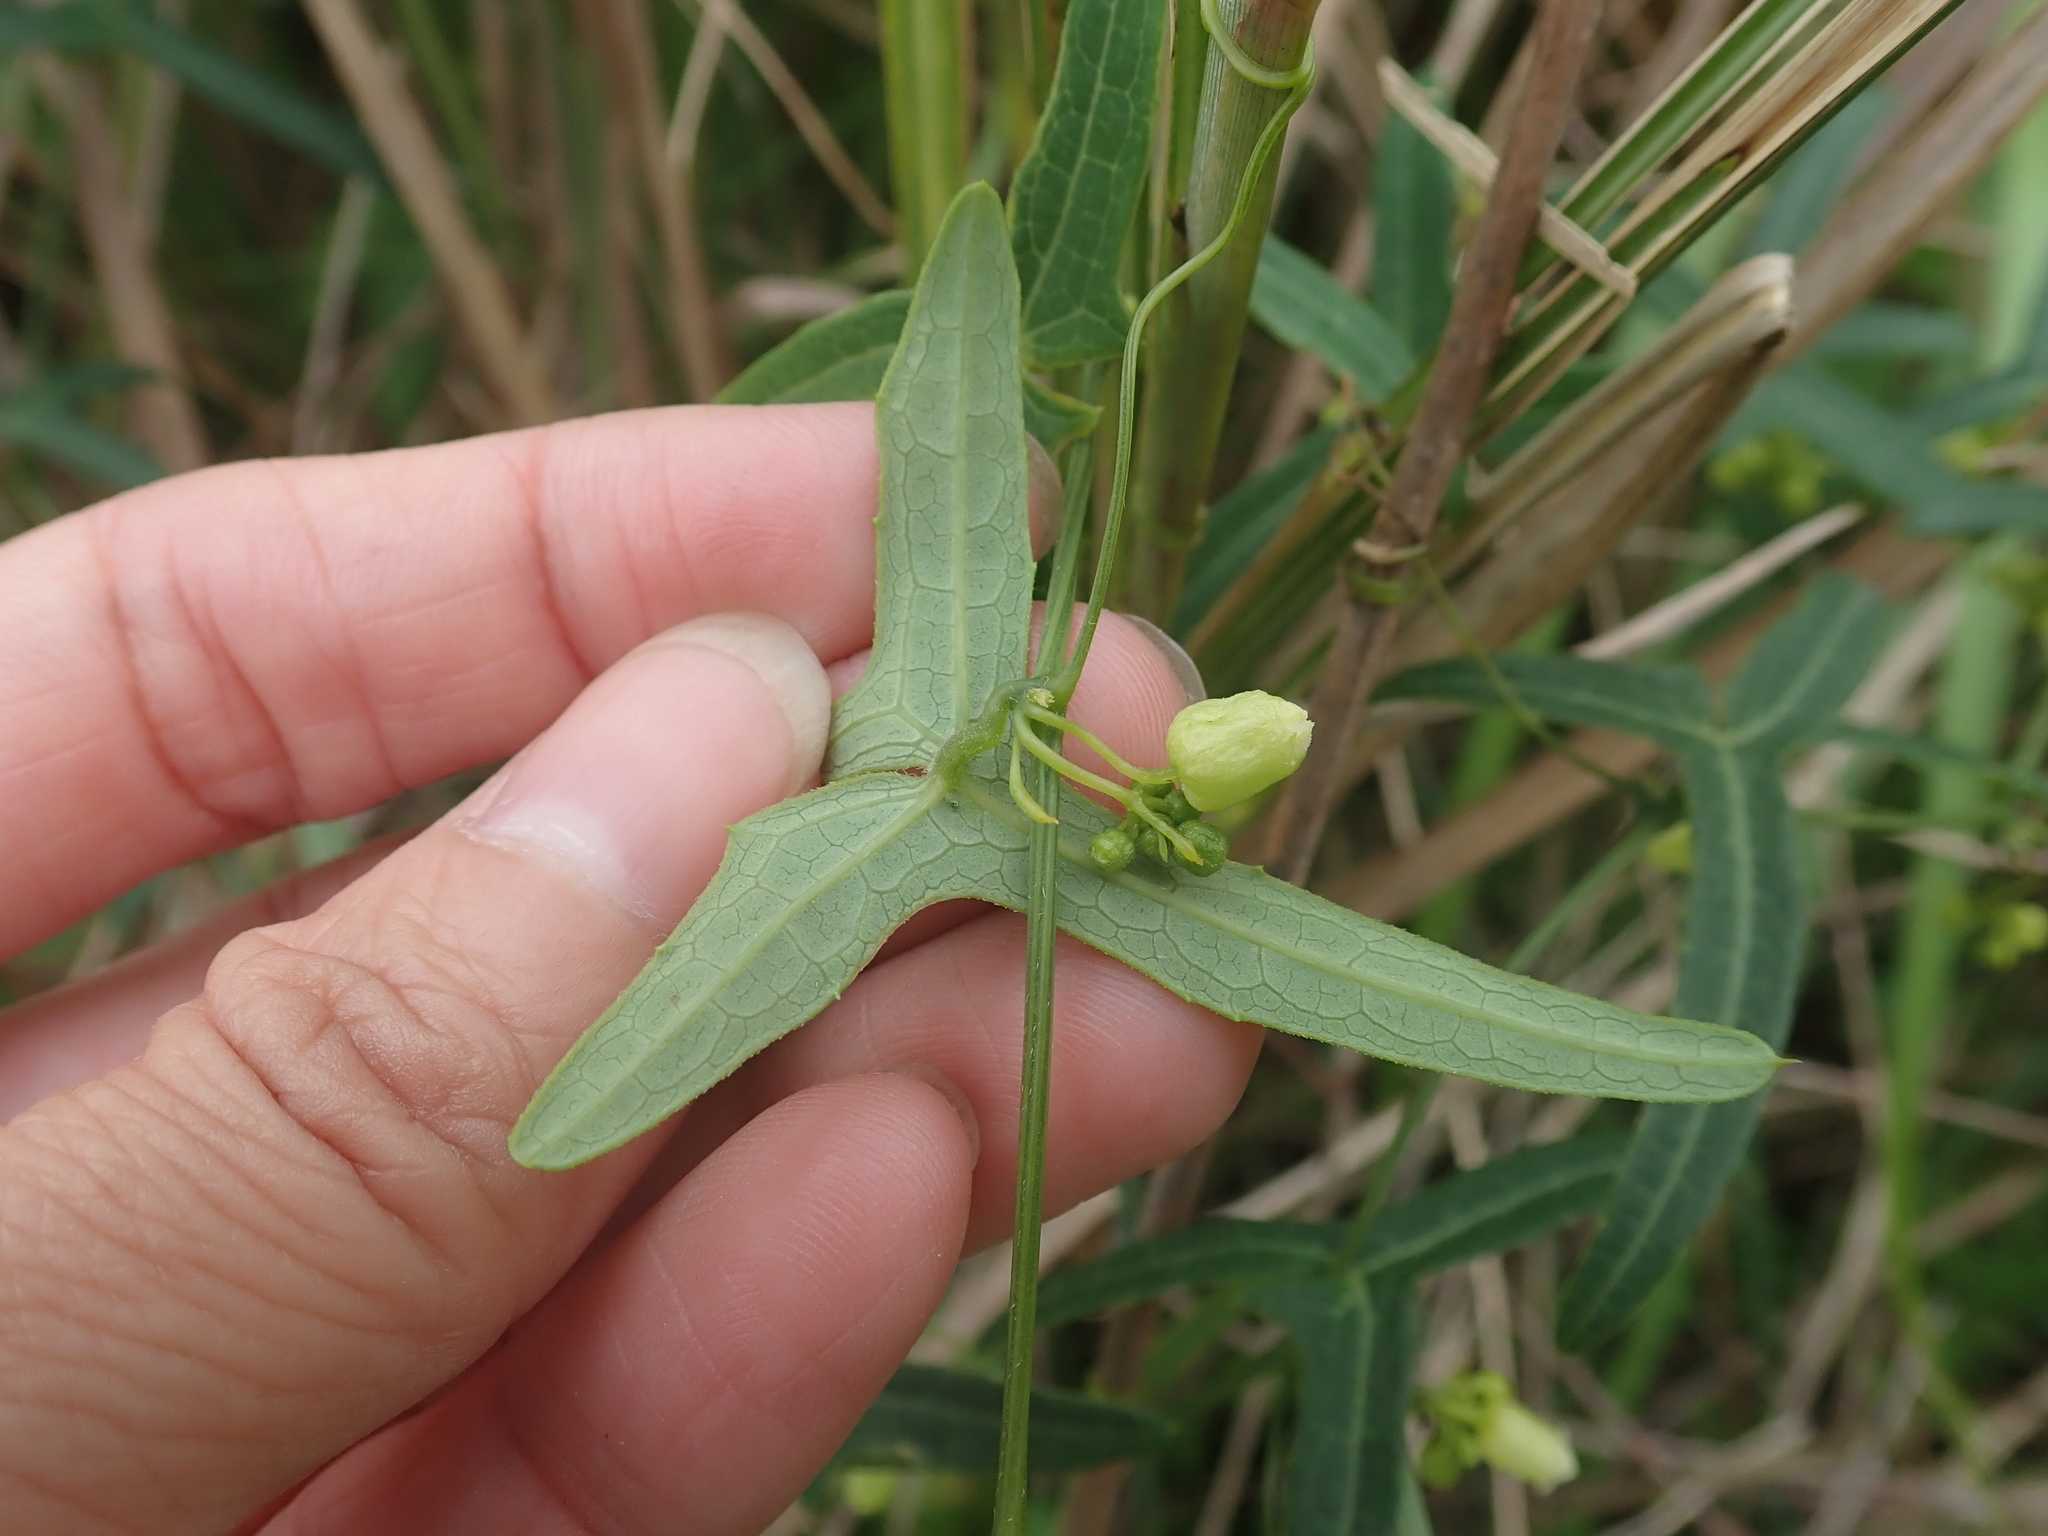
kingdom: Plantae
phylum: Tracheophyta
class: Magnoliopsida
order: Cucurbitales
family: Cucurbitaceae
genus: Solena
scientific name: Solena amplexicaulis
